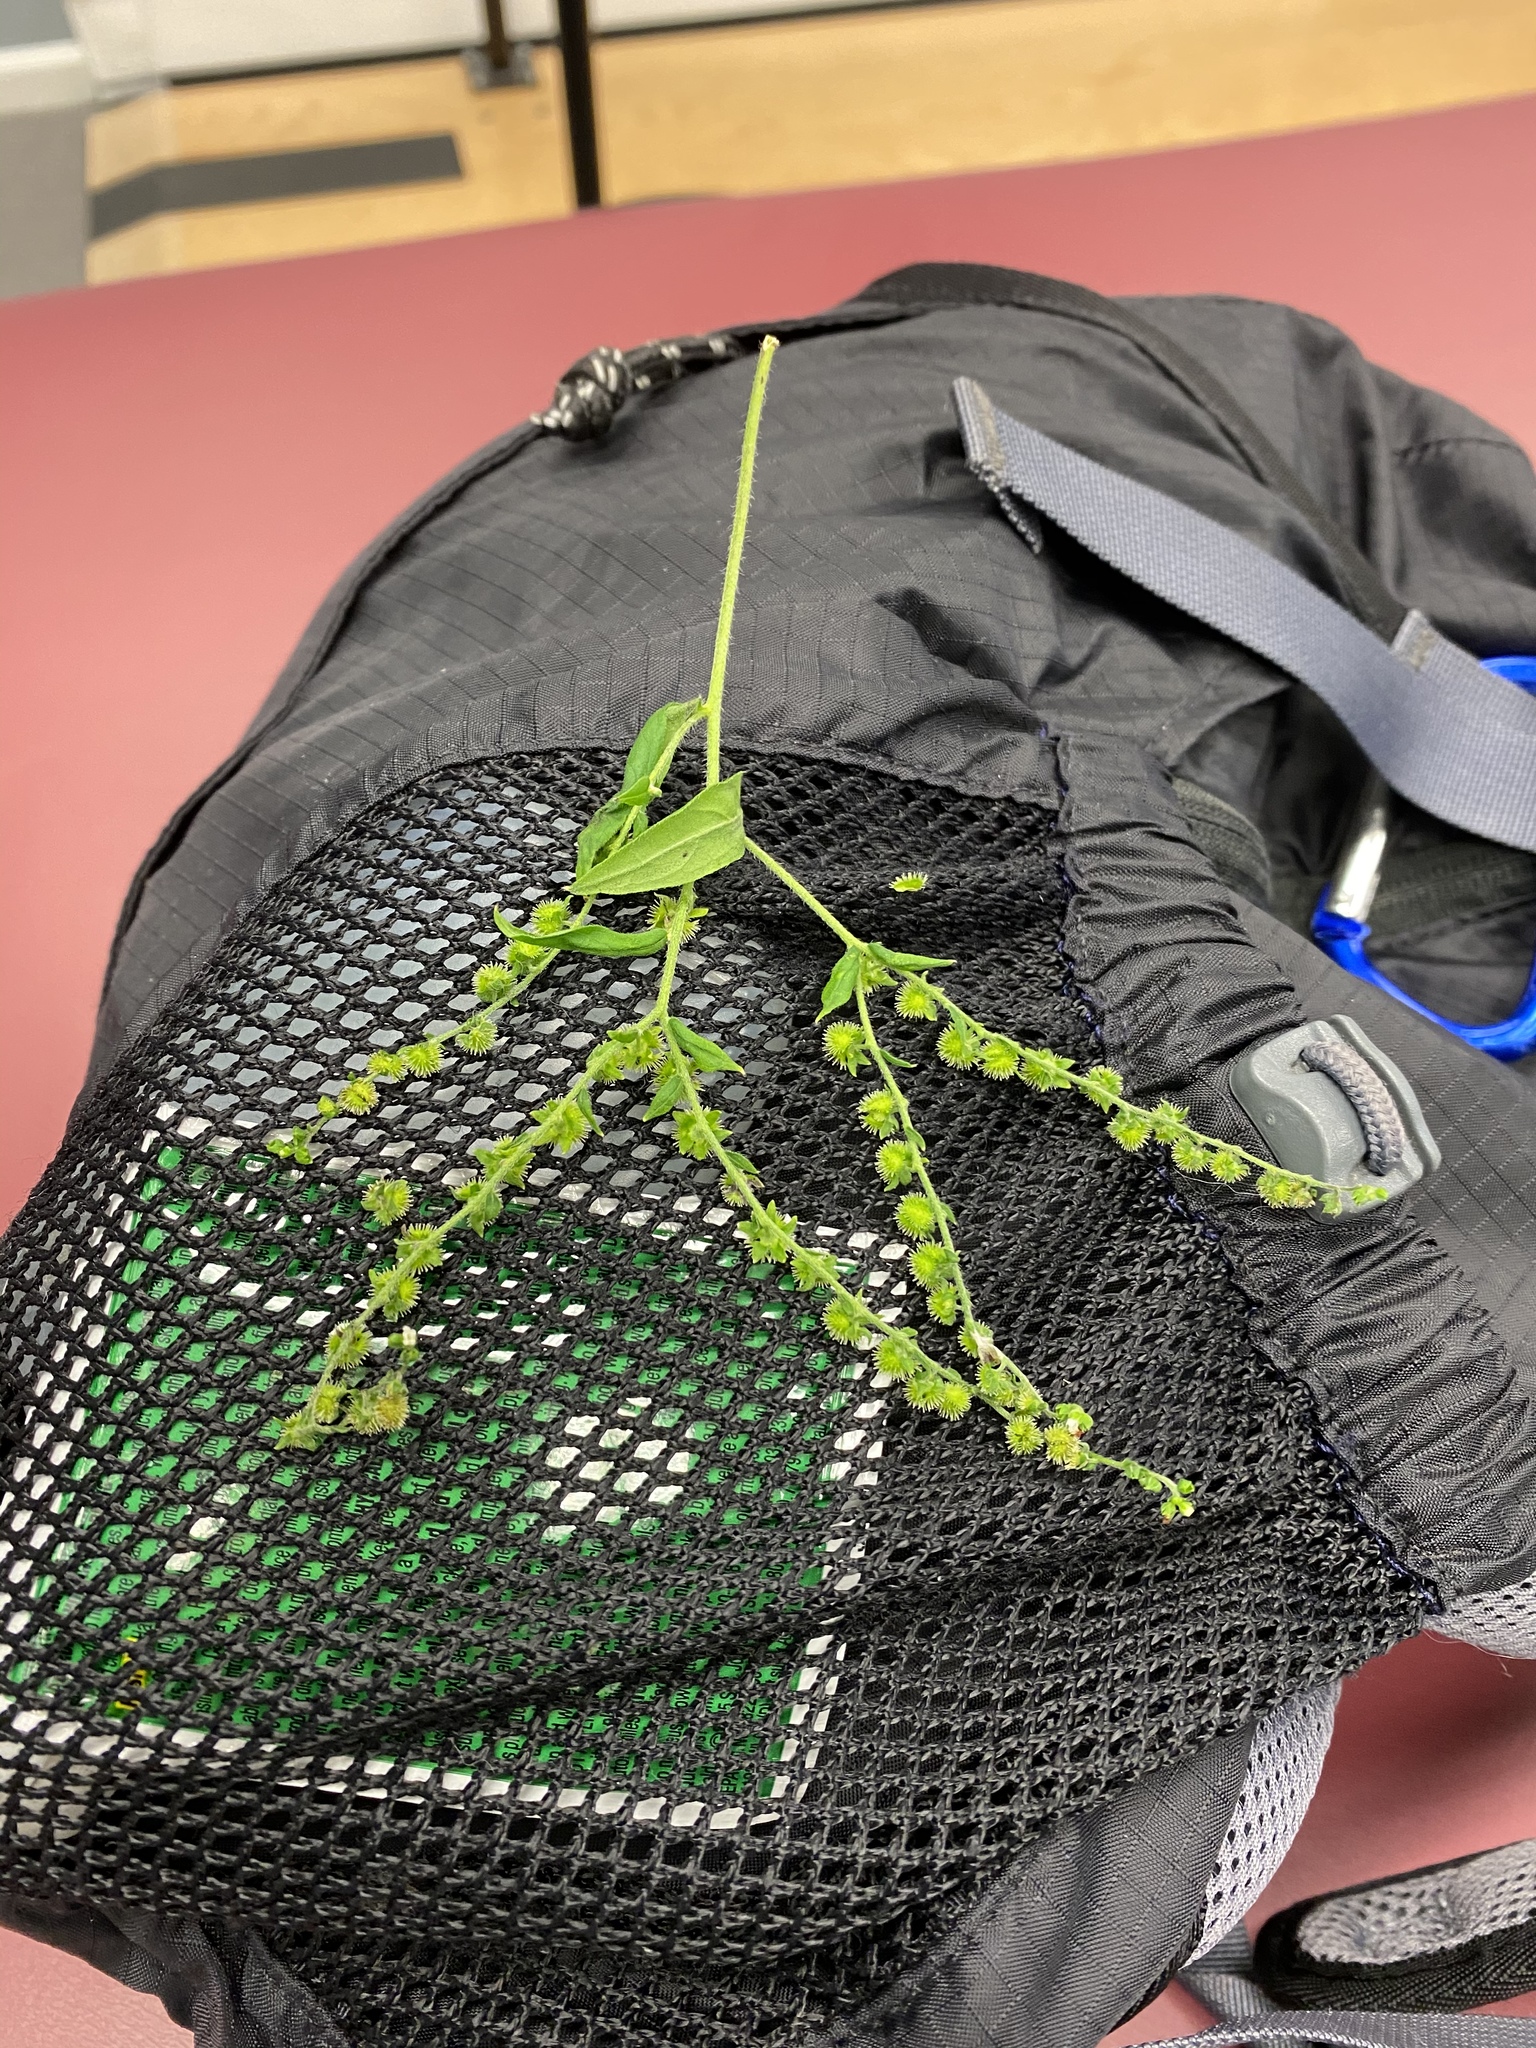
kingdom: Plantae
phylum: Tracheophyta
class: Magnoliopsida
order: Boraginales
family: Boraginaceae
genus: Hackelia
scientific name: Hackelia virginiana
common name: Beggar's-lice
